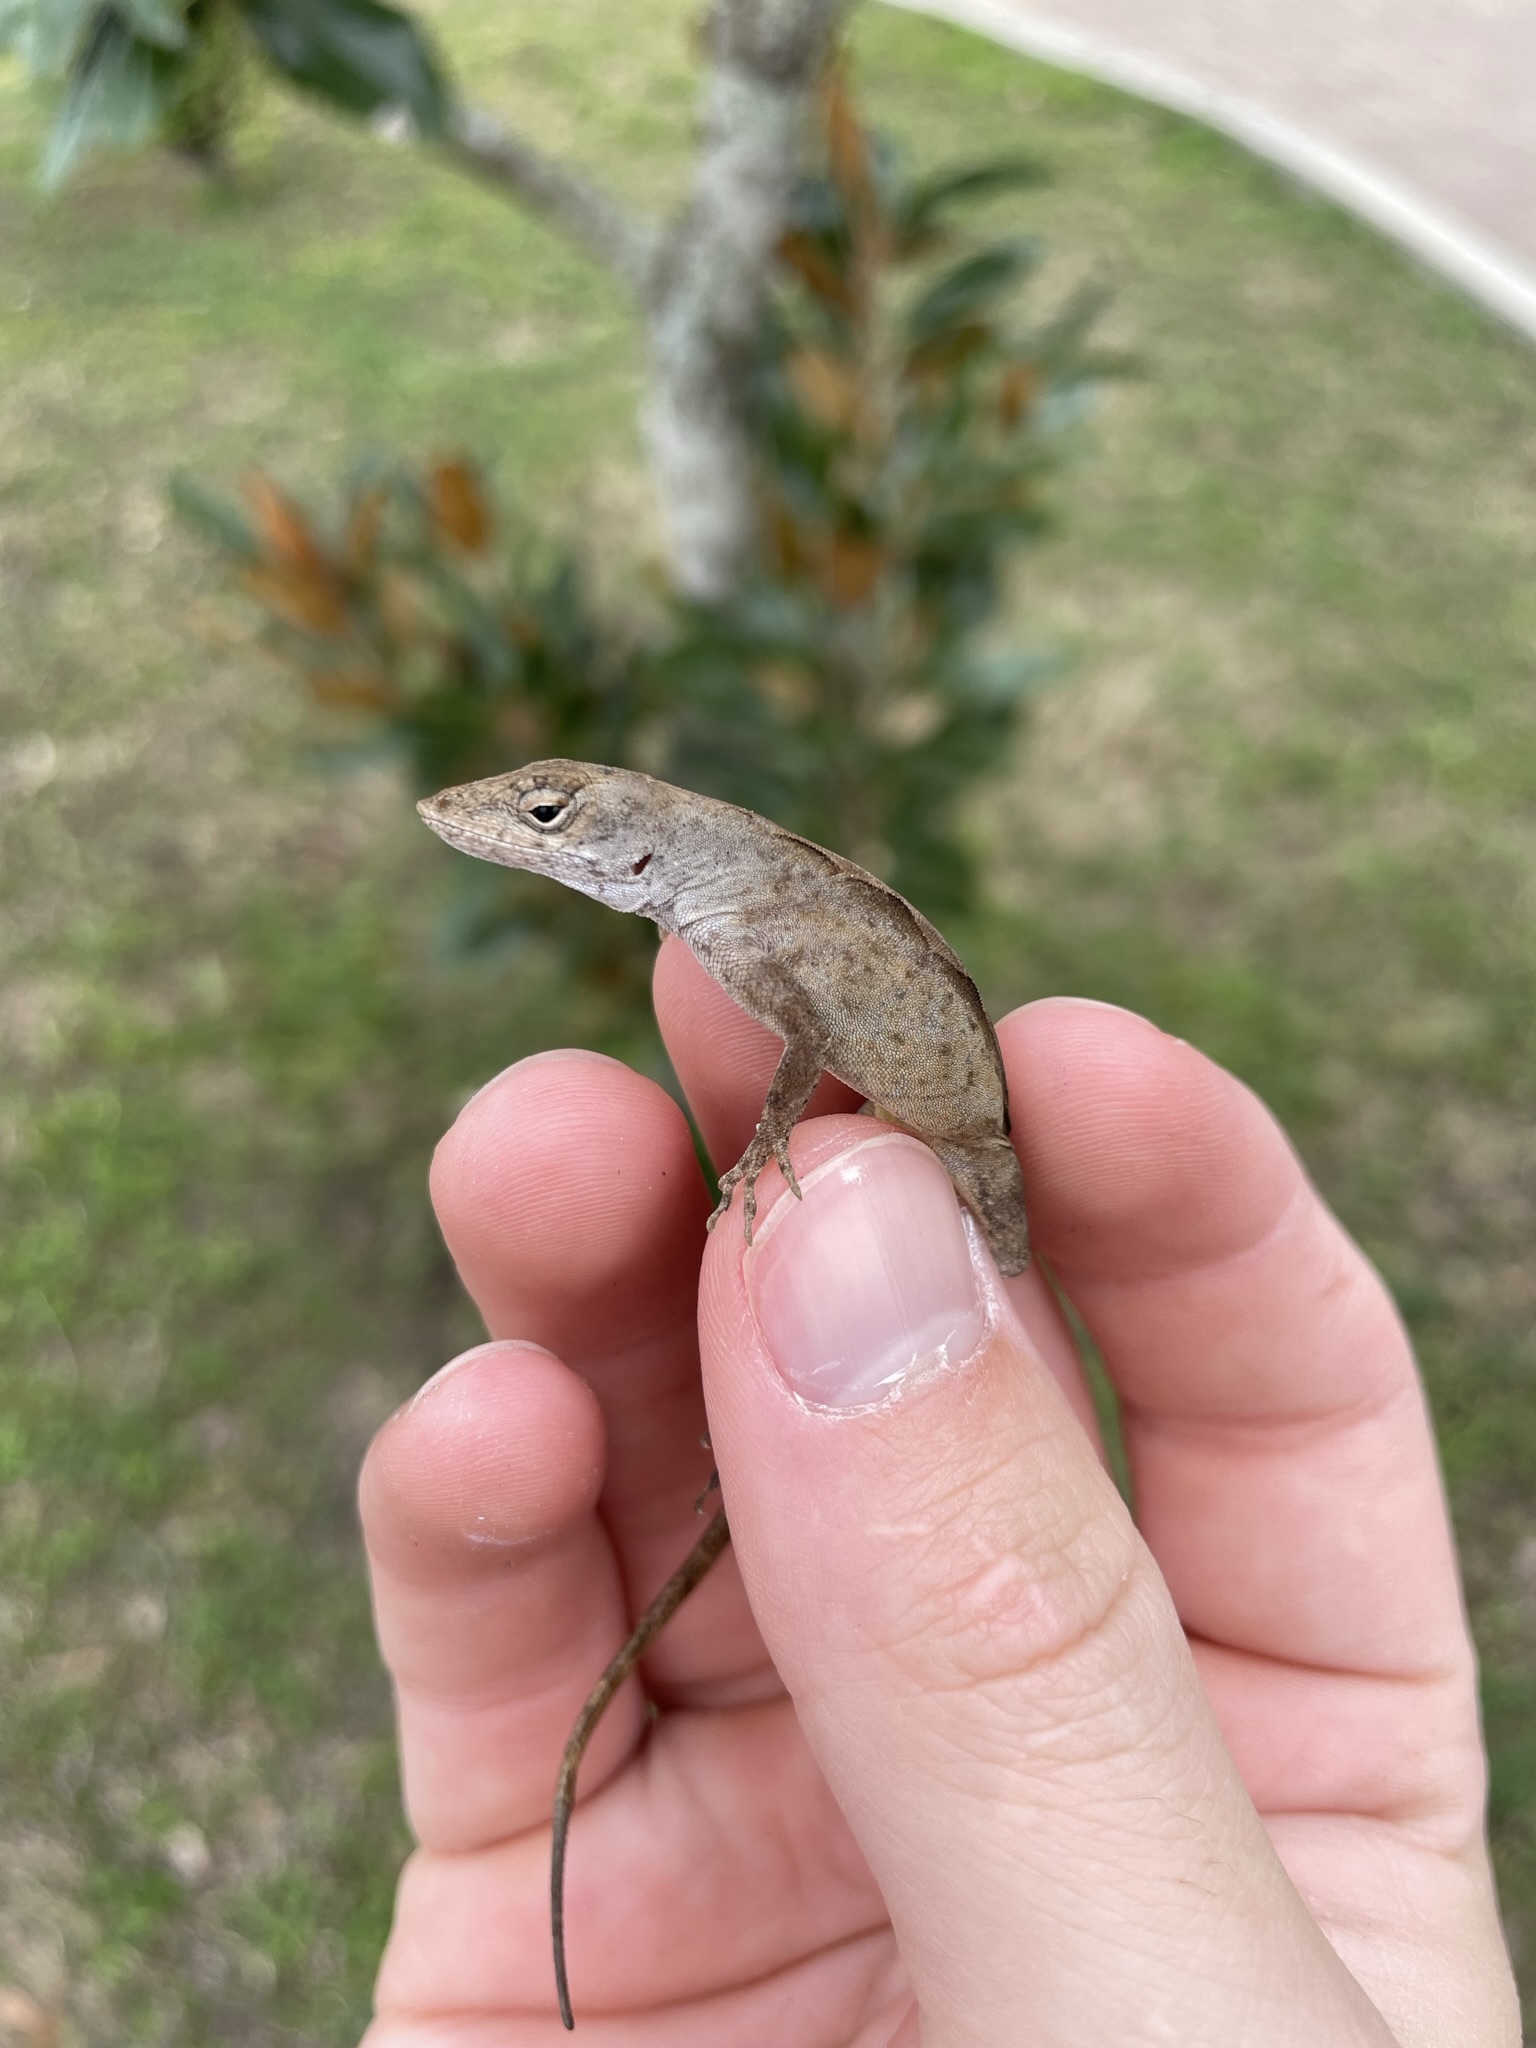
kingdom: Animalia
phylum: Chordata
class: Squamata
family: Dactyloidae
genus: Anolis
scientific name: Anolis sagrei
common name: Brown anole
